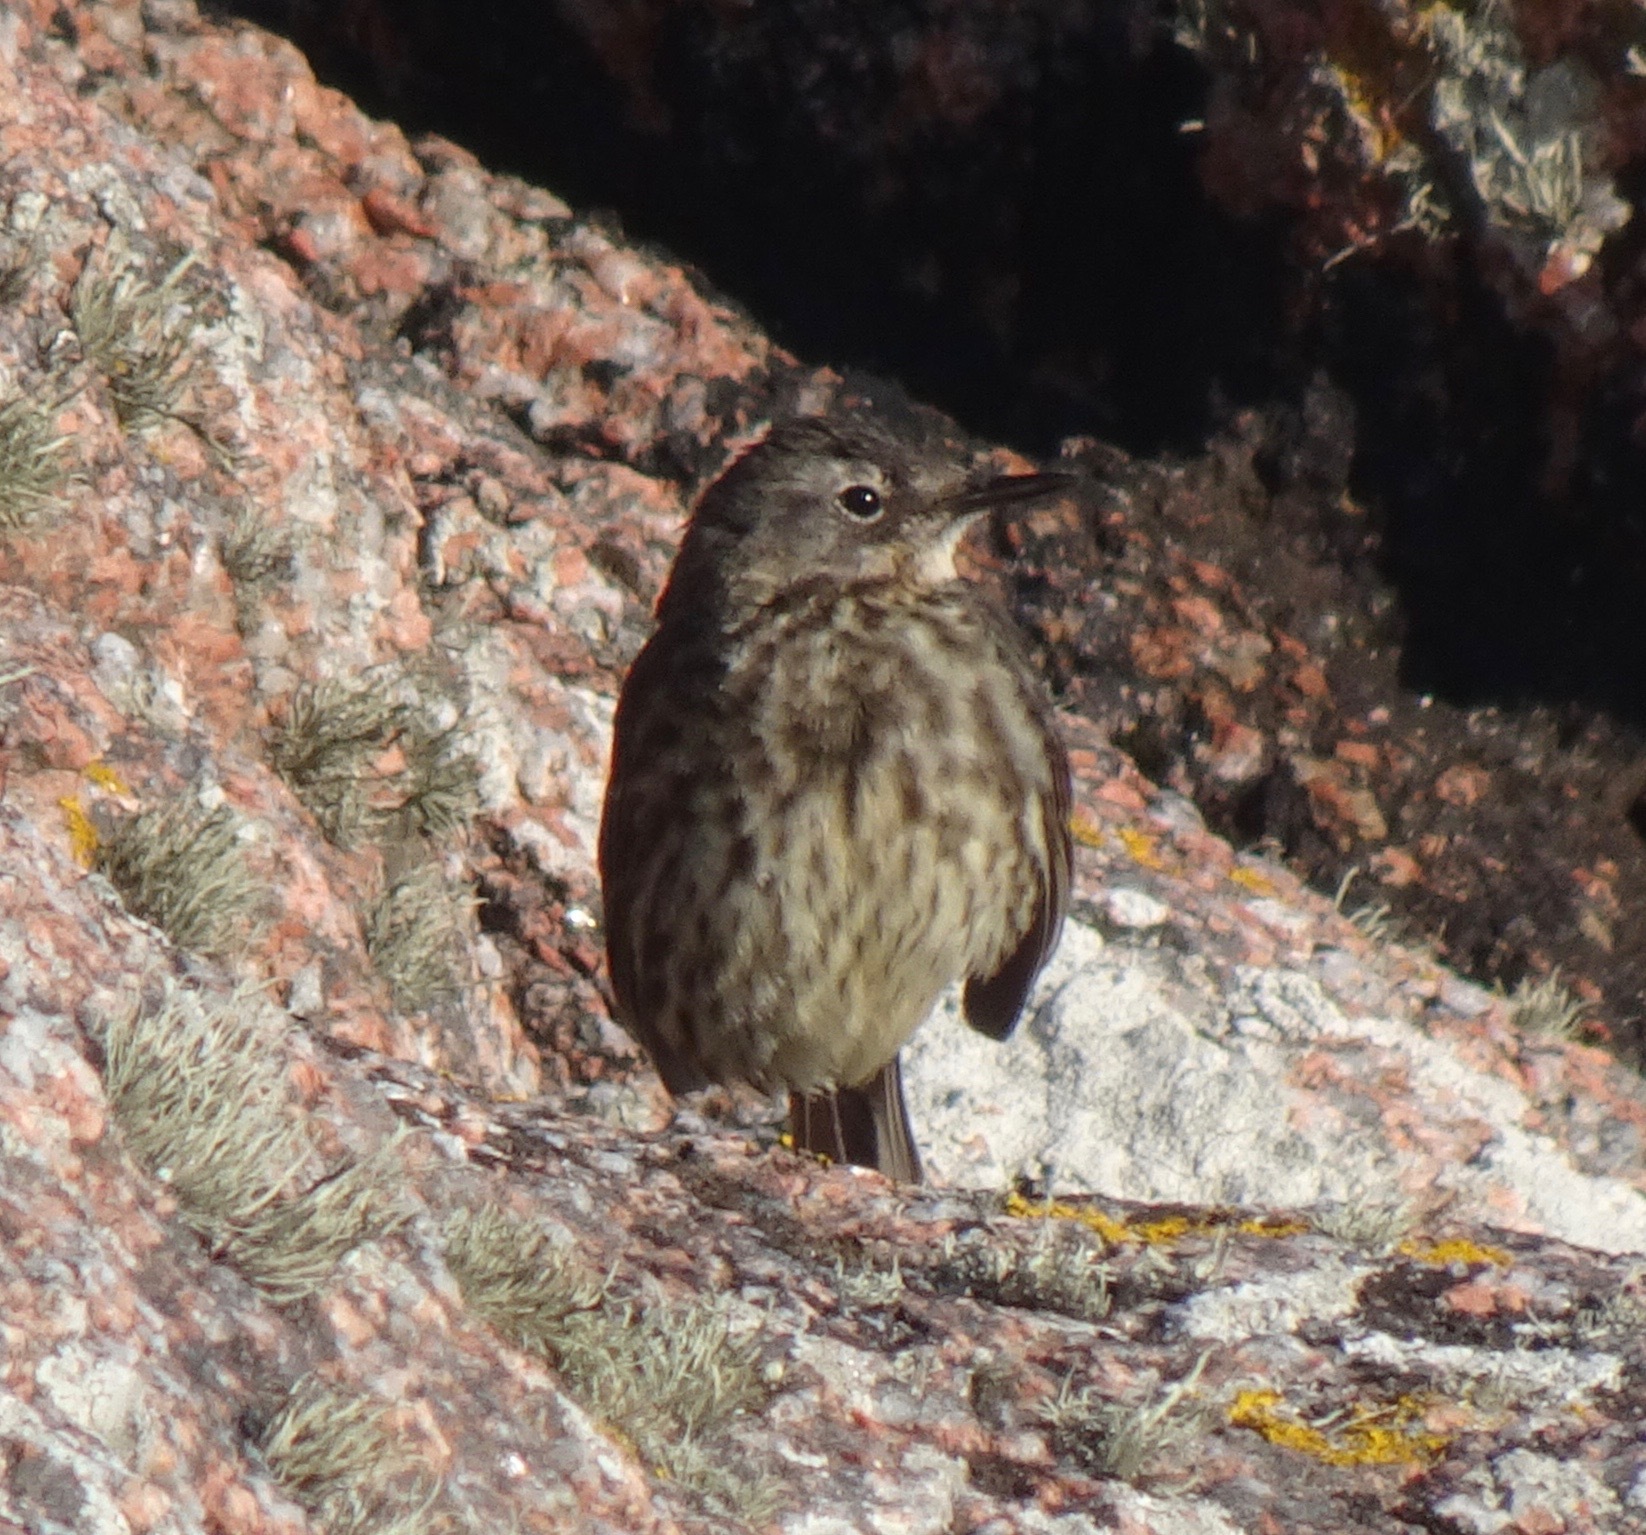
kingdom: Animalia
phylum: Chordata
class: Aves
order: Passeriformes
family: Motacillidae
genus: Anthus
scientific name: Anthus petrosus
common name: Eurasian rock pipit
